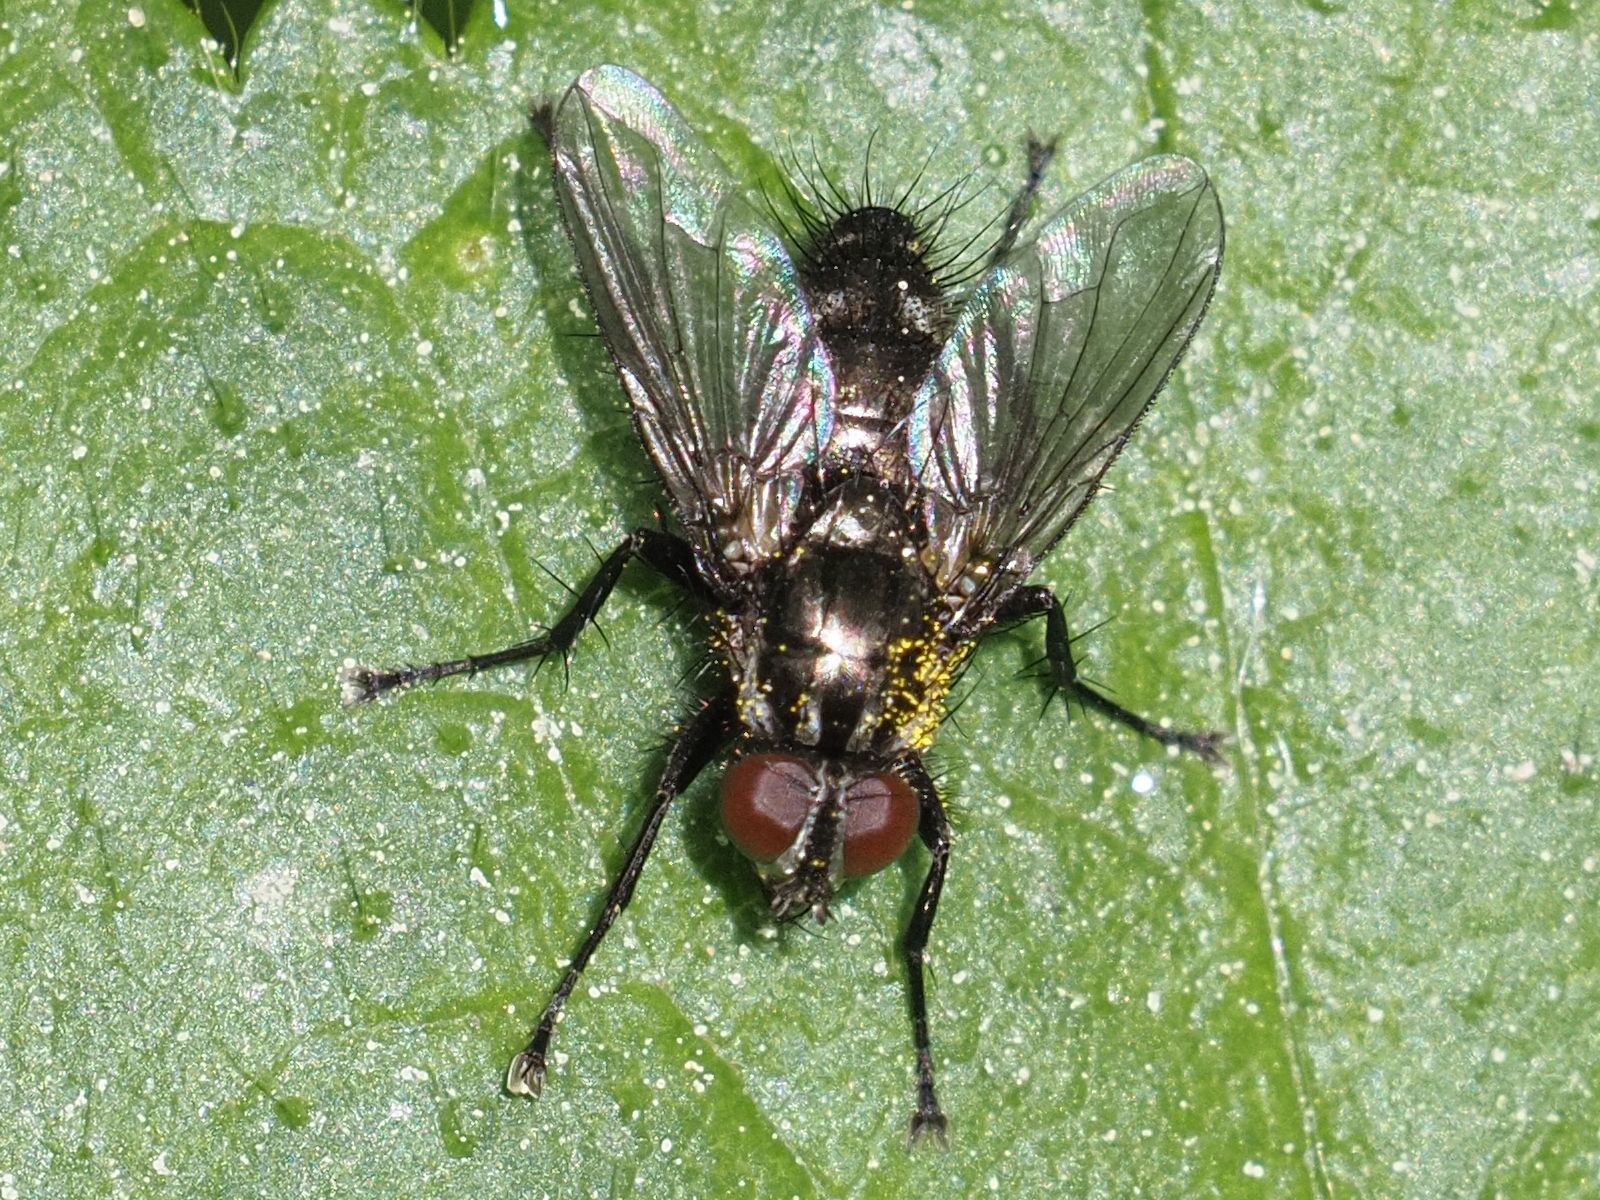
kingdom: Animalia
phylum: Arthropoda
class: Insecta
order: Diptera
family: Calliphoridae
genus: Rhinomorinia
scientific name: Rhinomorinia sarcophagina
